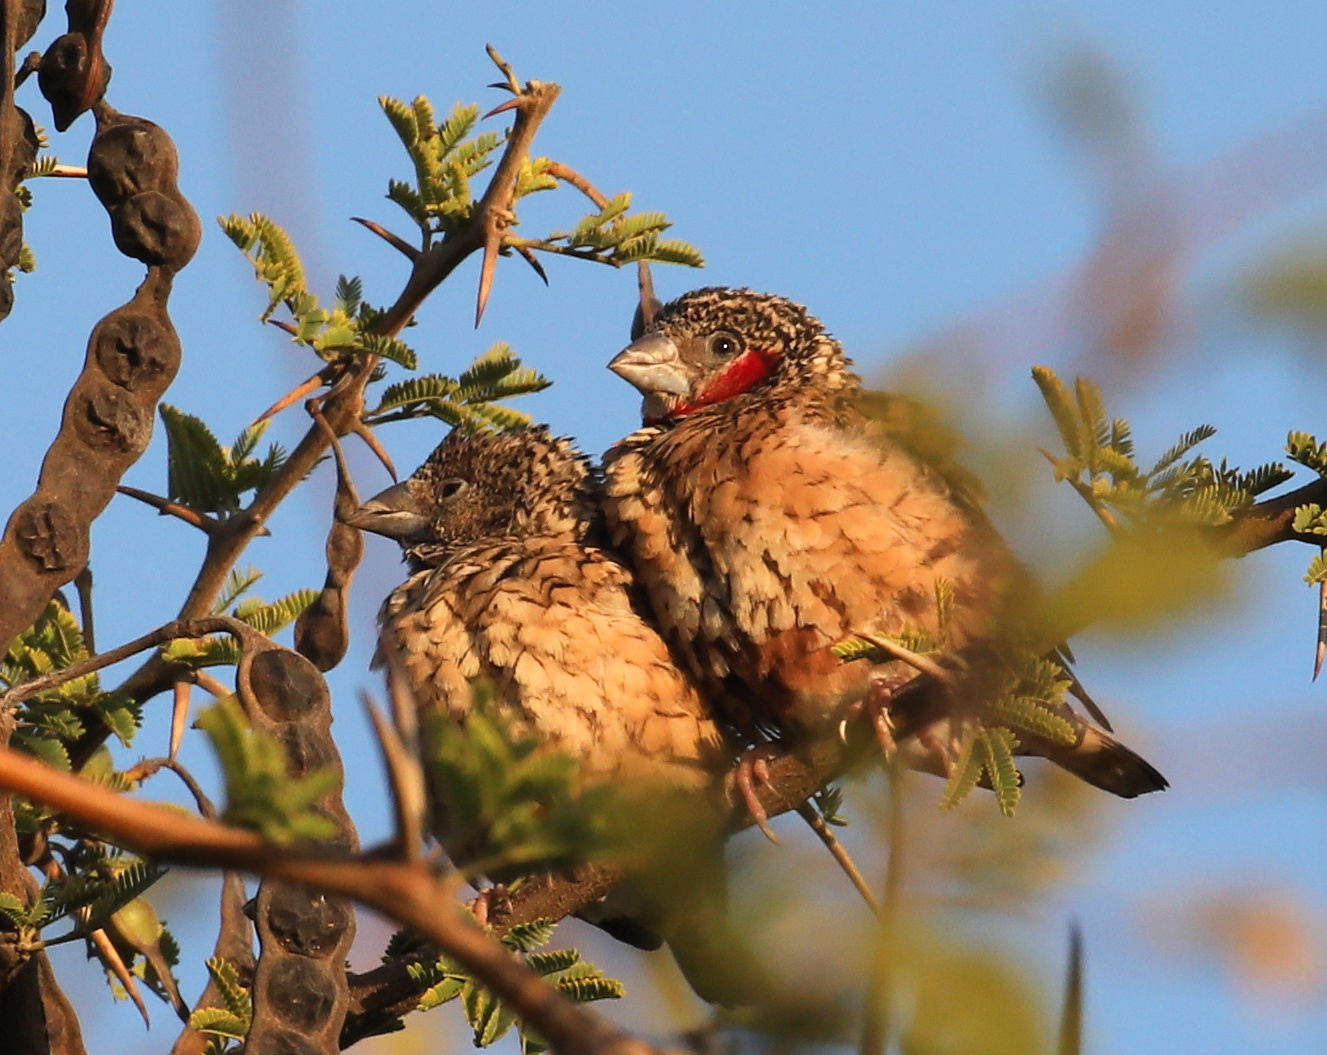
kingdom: Animalia
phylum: Chordata
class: Aves
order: Passeriformes
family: Estrildidae
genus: Amadina
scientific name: Amadina fasciata
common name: Cut-throat finch
